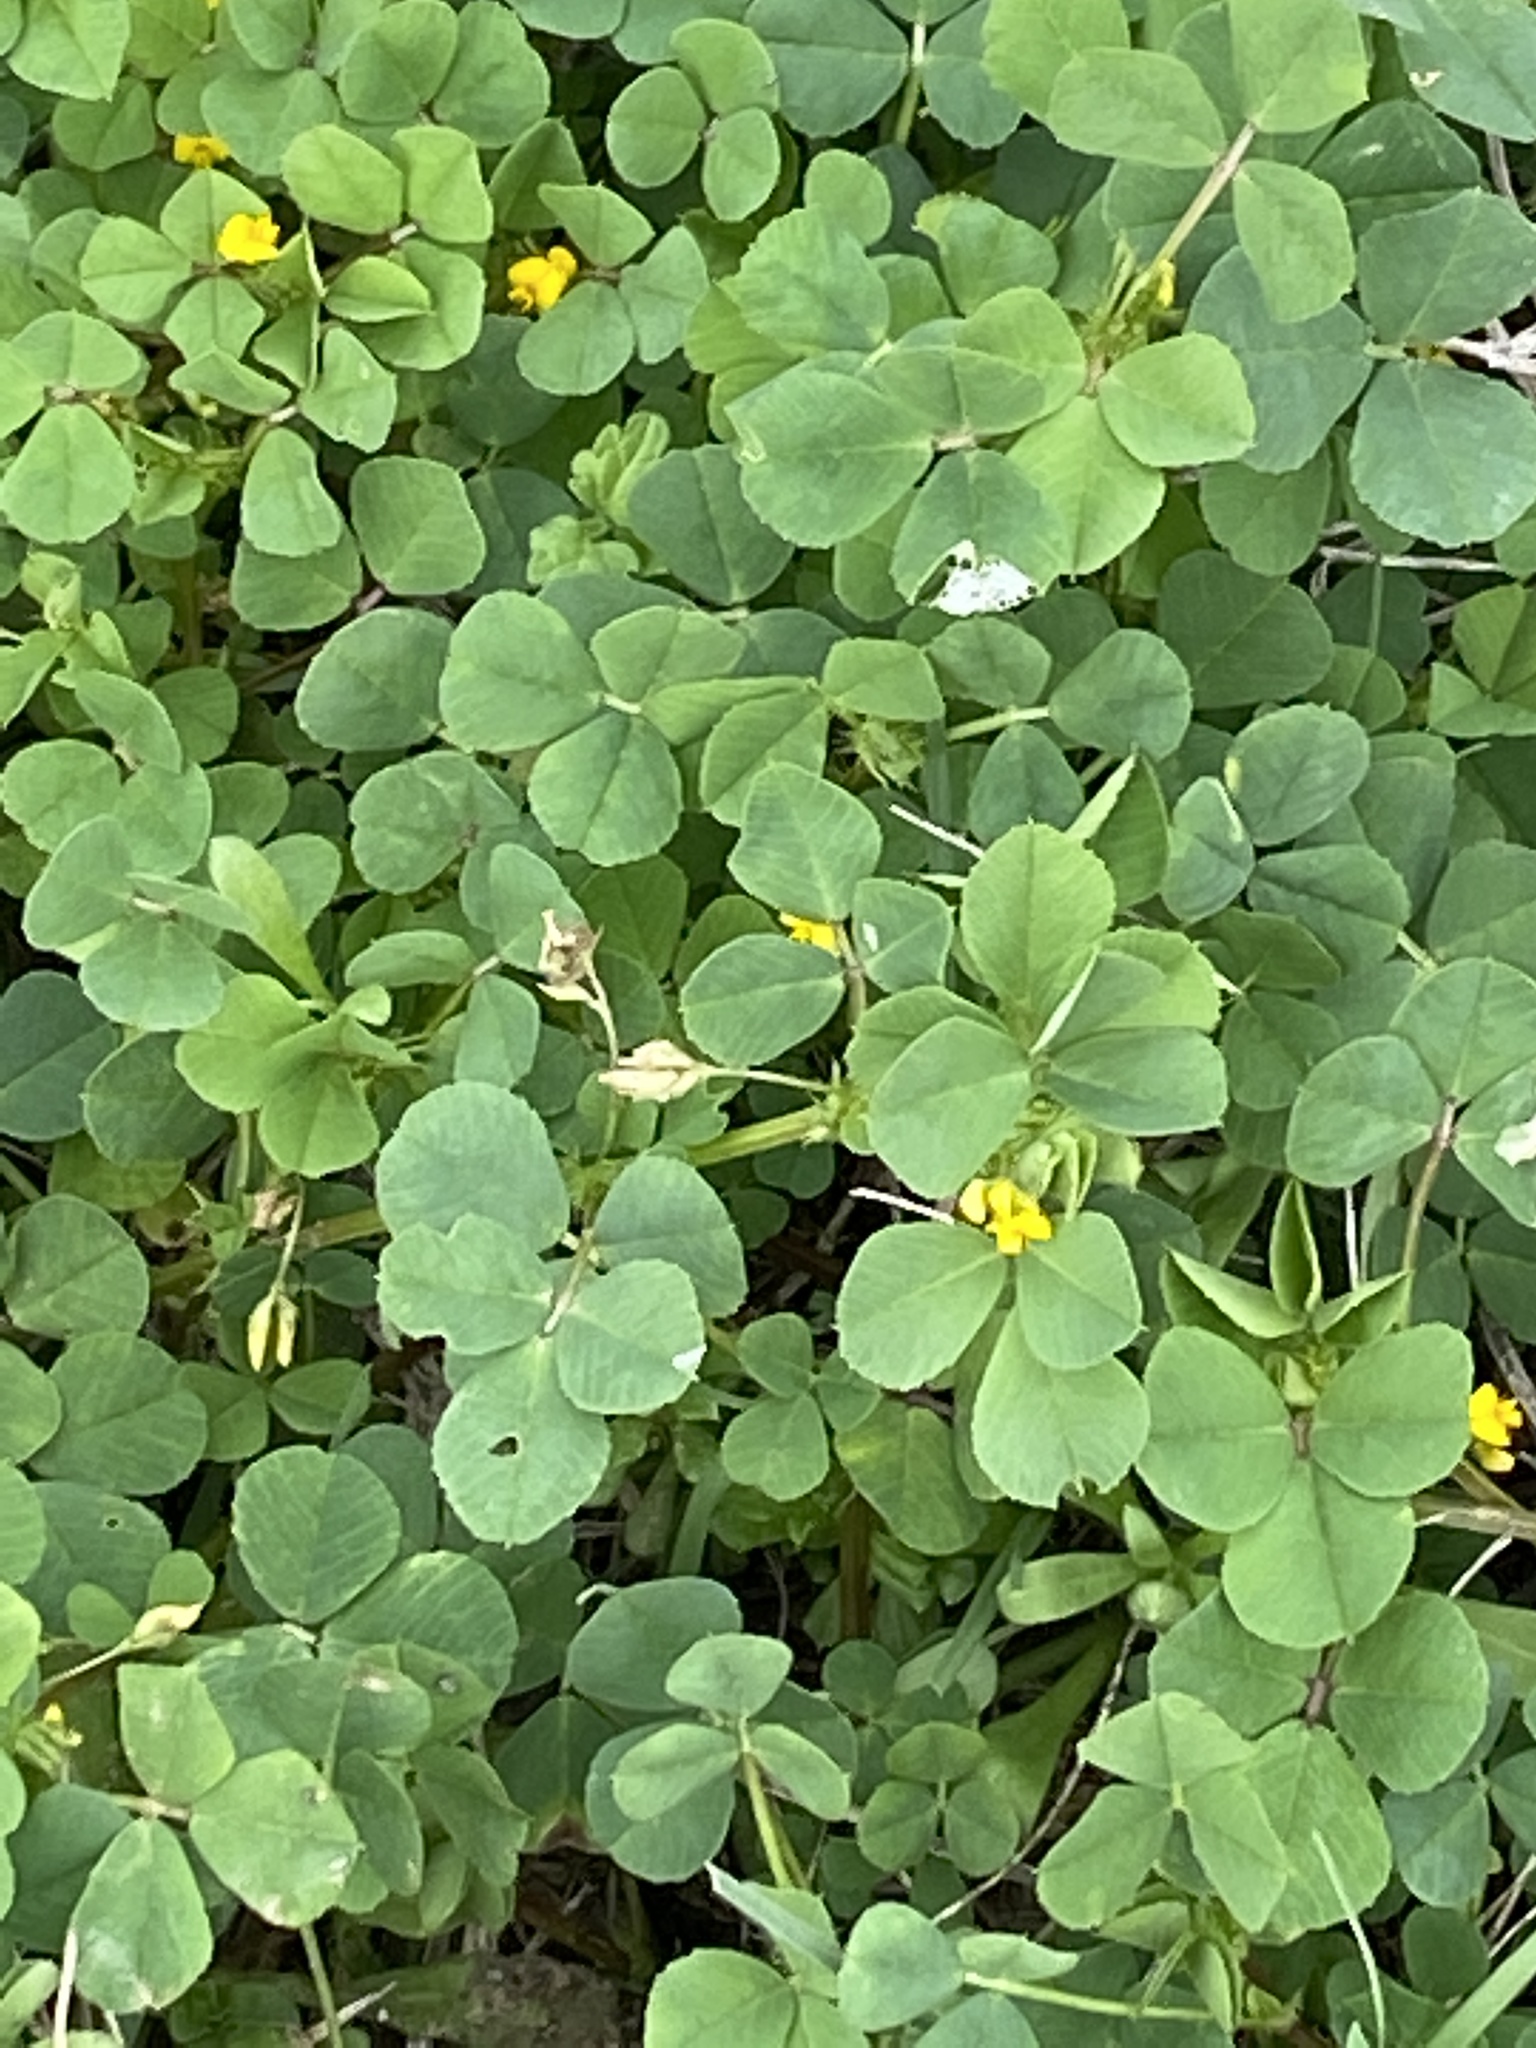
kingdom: Plantae
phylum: Tracheophyta
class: Magnoliopsida
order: Fabales
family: Fabaceae
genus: Medicago
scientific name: Medicago polymorpha
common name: Burclover
